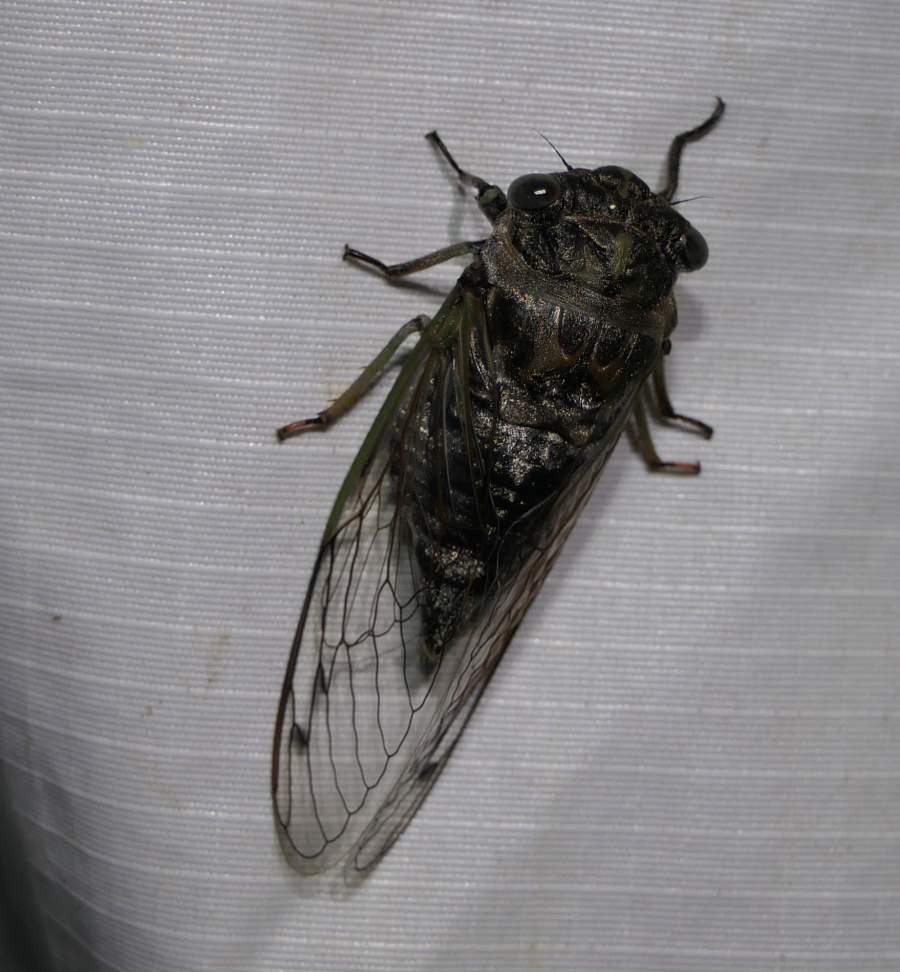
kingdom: Animalia
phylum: Arthropoda
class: Insecta
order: Hemiptera
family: Cicadidae
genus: Neotibicen
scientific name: Neotibicen canicularis
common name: God-day cicada
